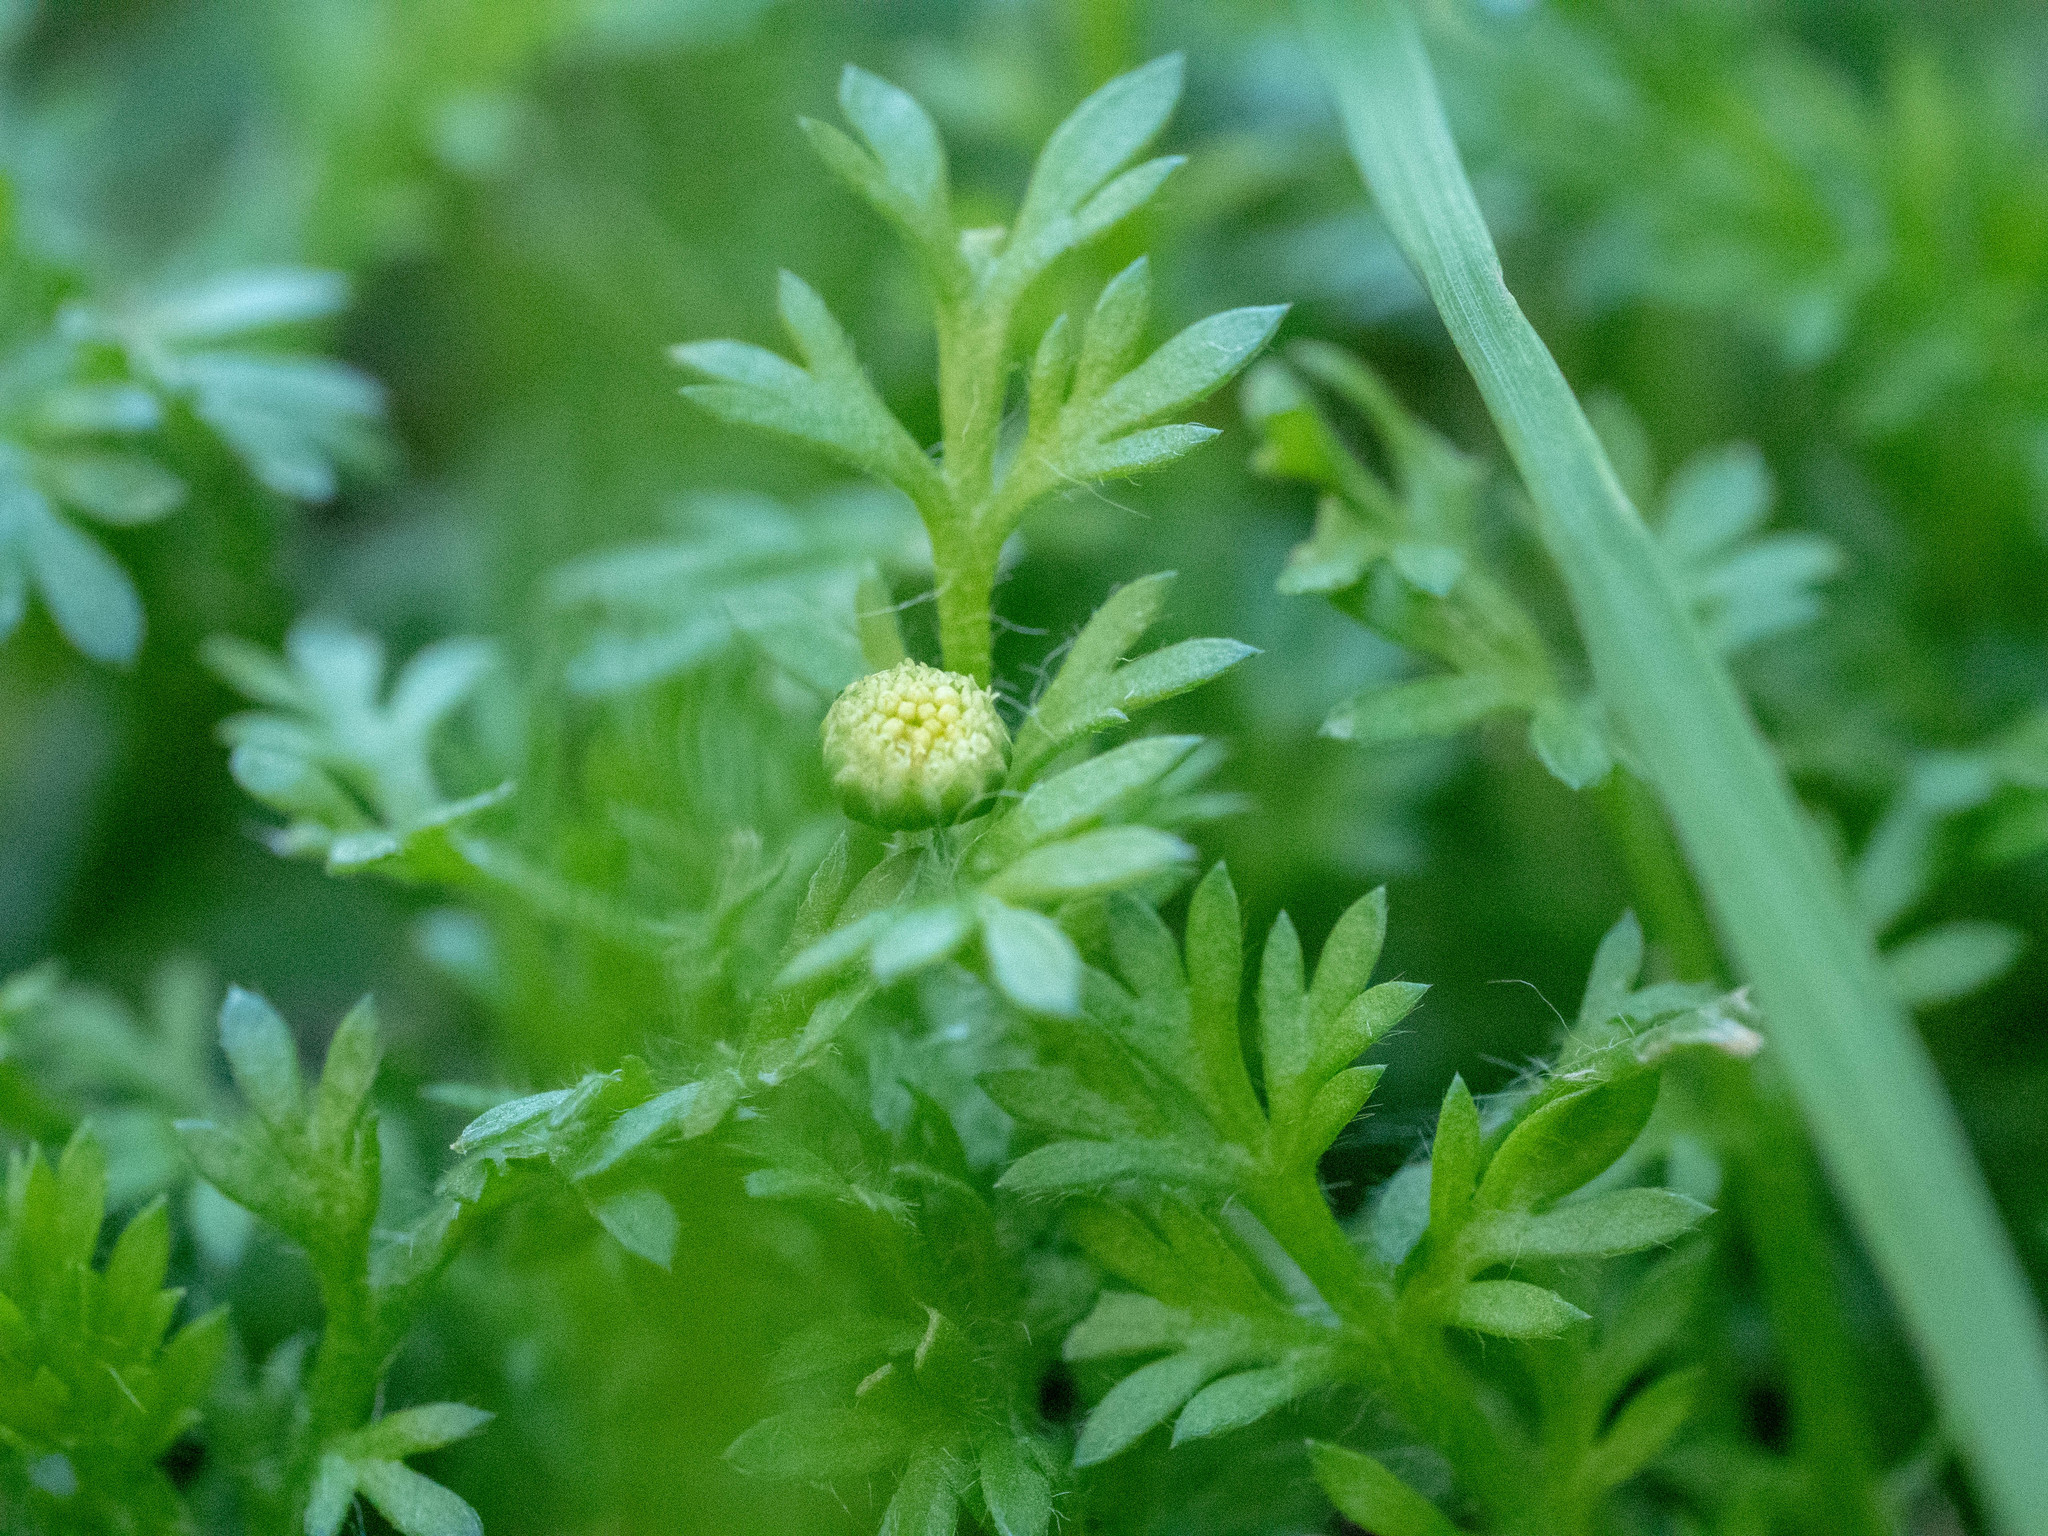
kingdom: Plantae
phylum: Tracheophyta
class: Magnoliopsida
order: Asterales
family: Asteraceae
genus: Cotula
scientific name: Cotula australis
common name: Australian waterbuttons
